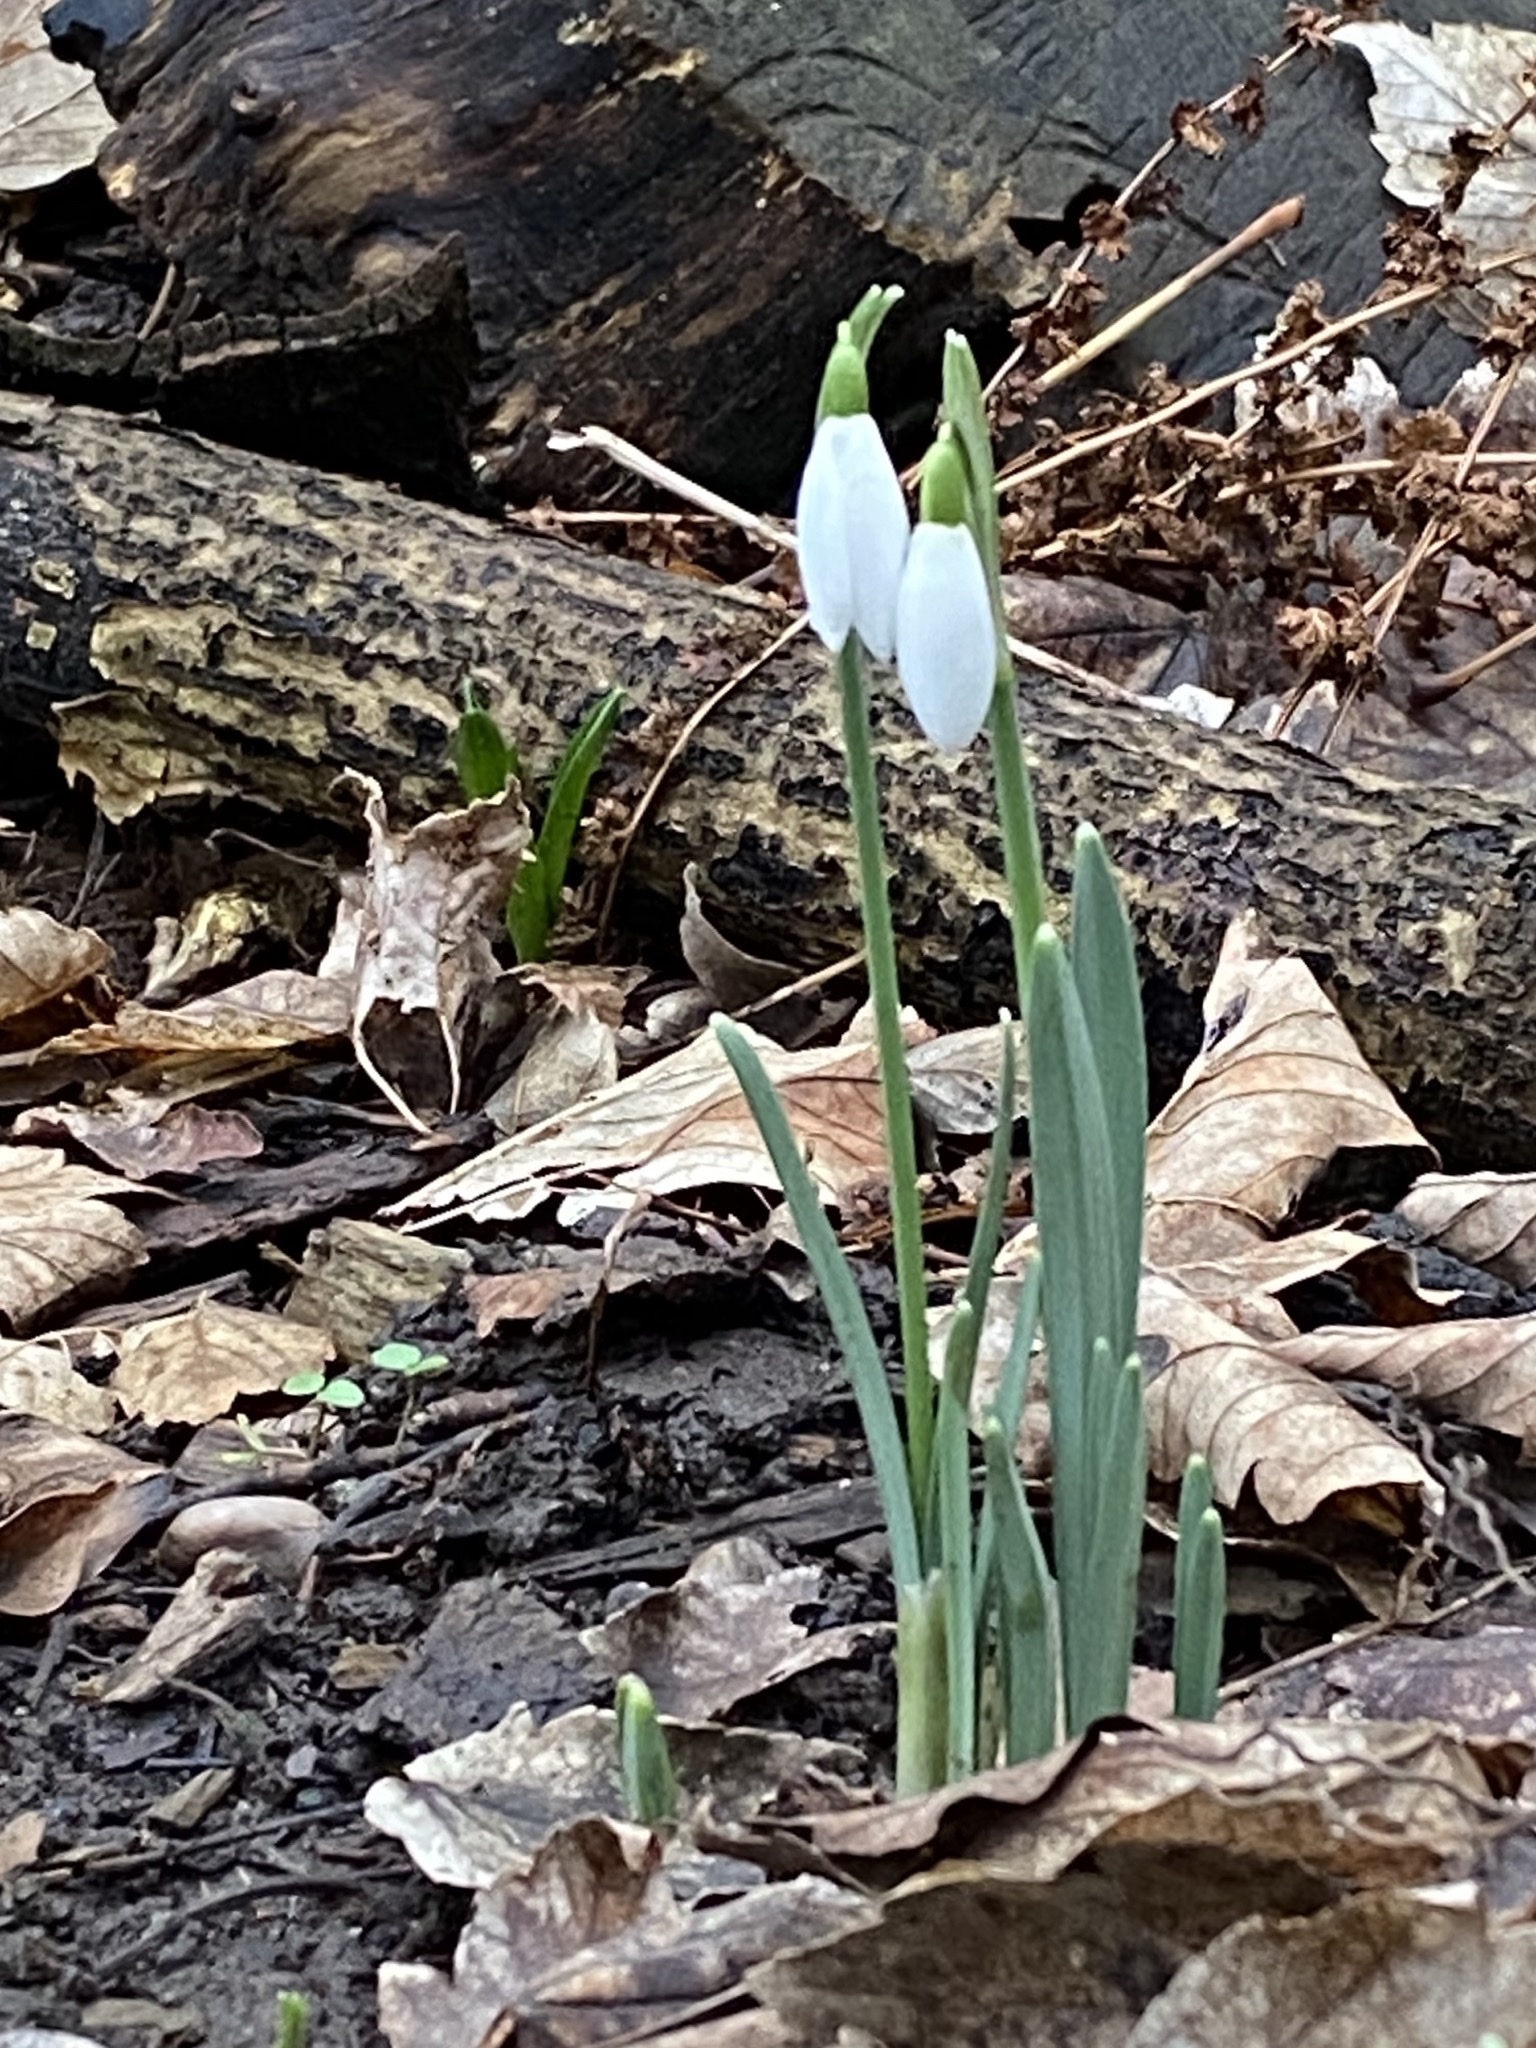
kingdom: Plantae
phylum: Tracheophyta
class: Liliopsida
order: Asparagales
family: Amaryllidaceae
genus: Galanthus
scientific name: Galanthus nivalis
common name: Snowdrop
